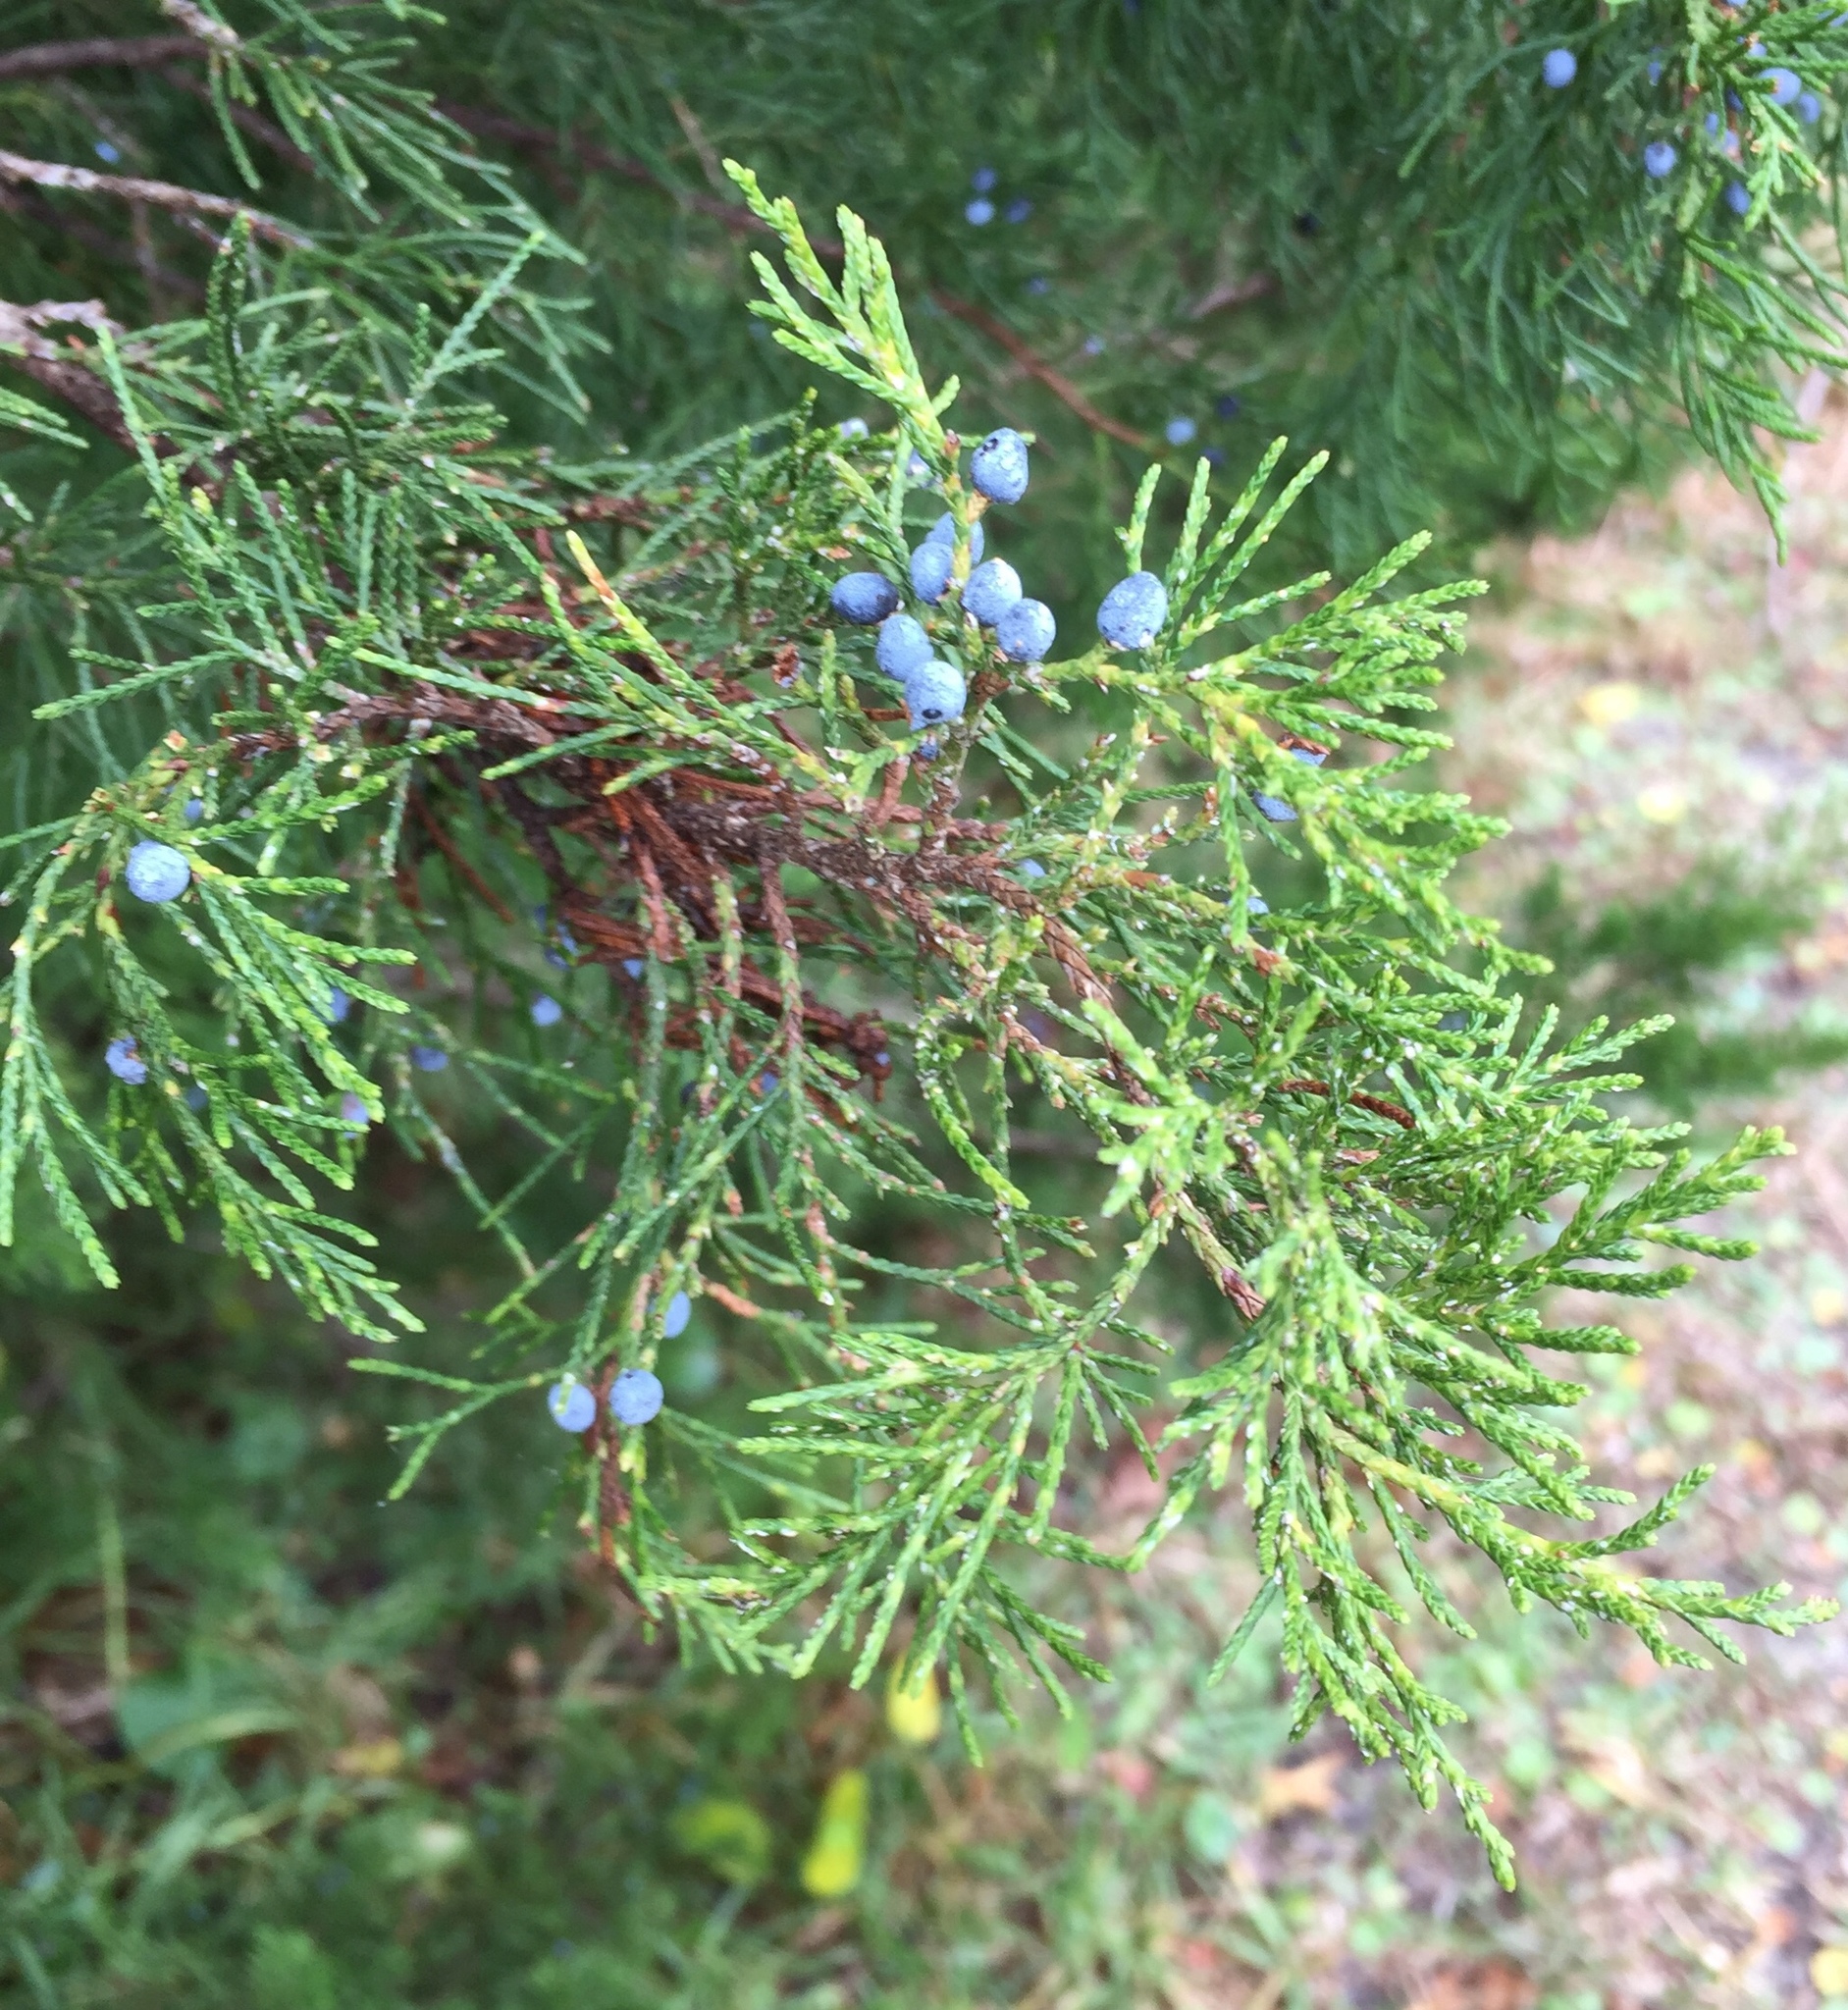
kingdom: Plantae
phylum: Tracheophyta
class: Pinopsida
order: Pinales
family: Cupressaceae
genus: Juniperus
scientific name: Juniperus virginiana
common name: Red juniper
